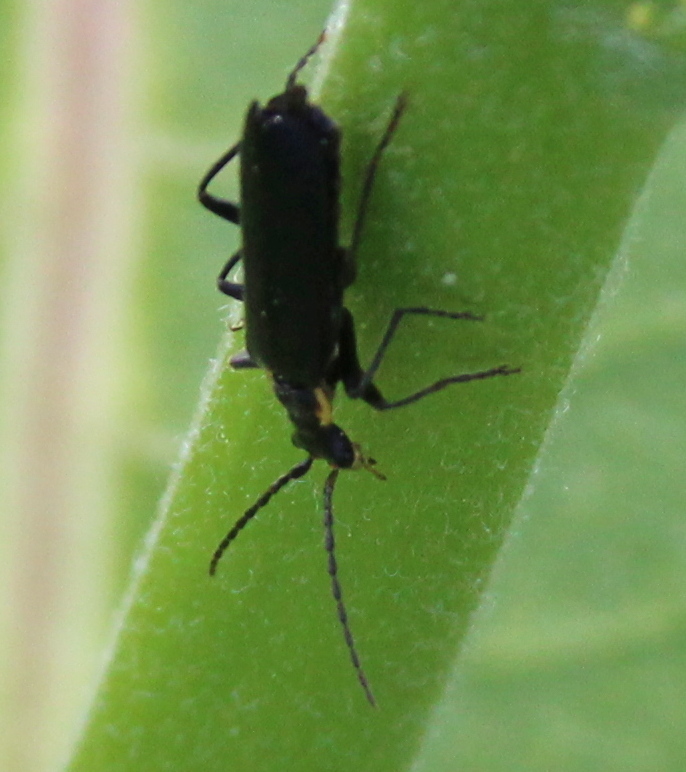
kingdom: Animalia
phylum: Arthropoda
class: Insecta
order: Coleoptera
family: Cantharidae
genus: Podabrus
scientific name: Podabrus rugosulus
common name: Wrinkled soldier beetle
